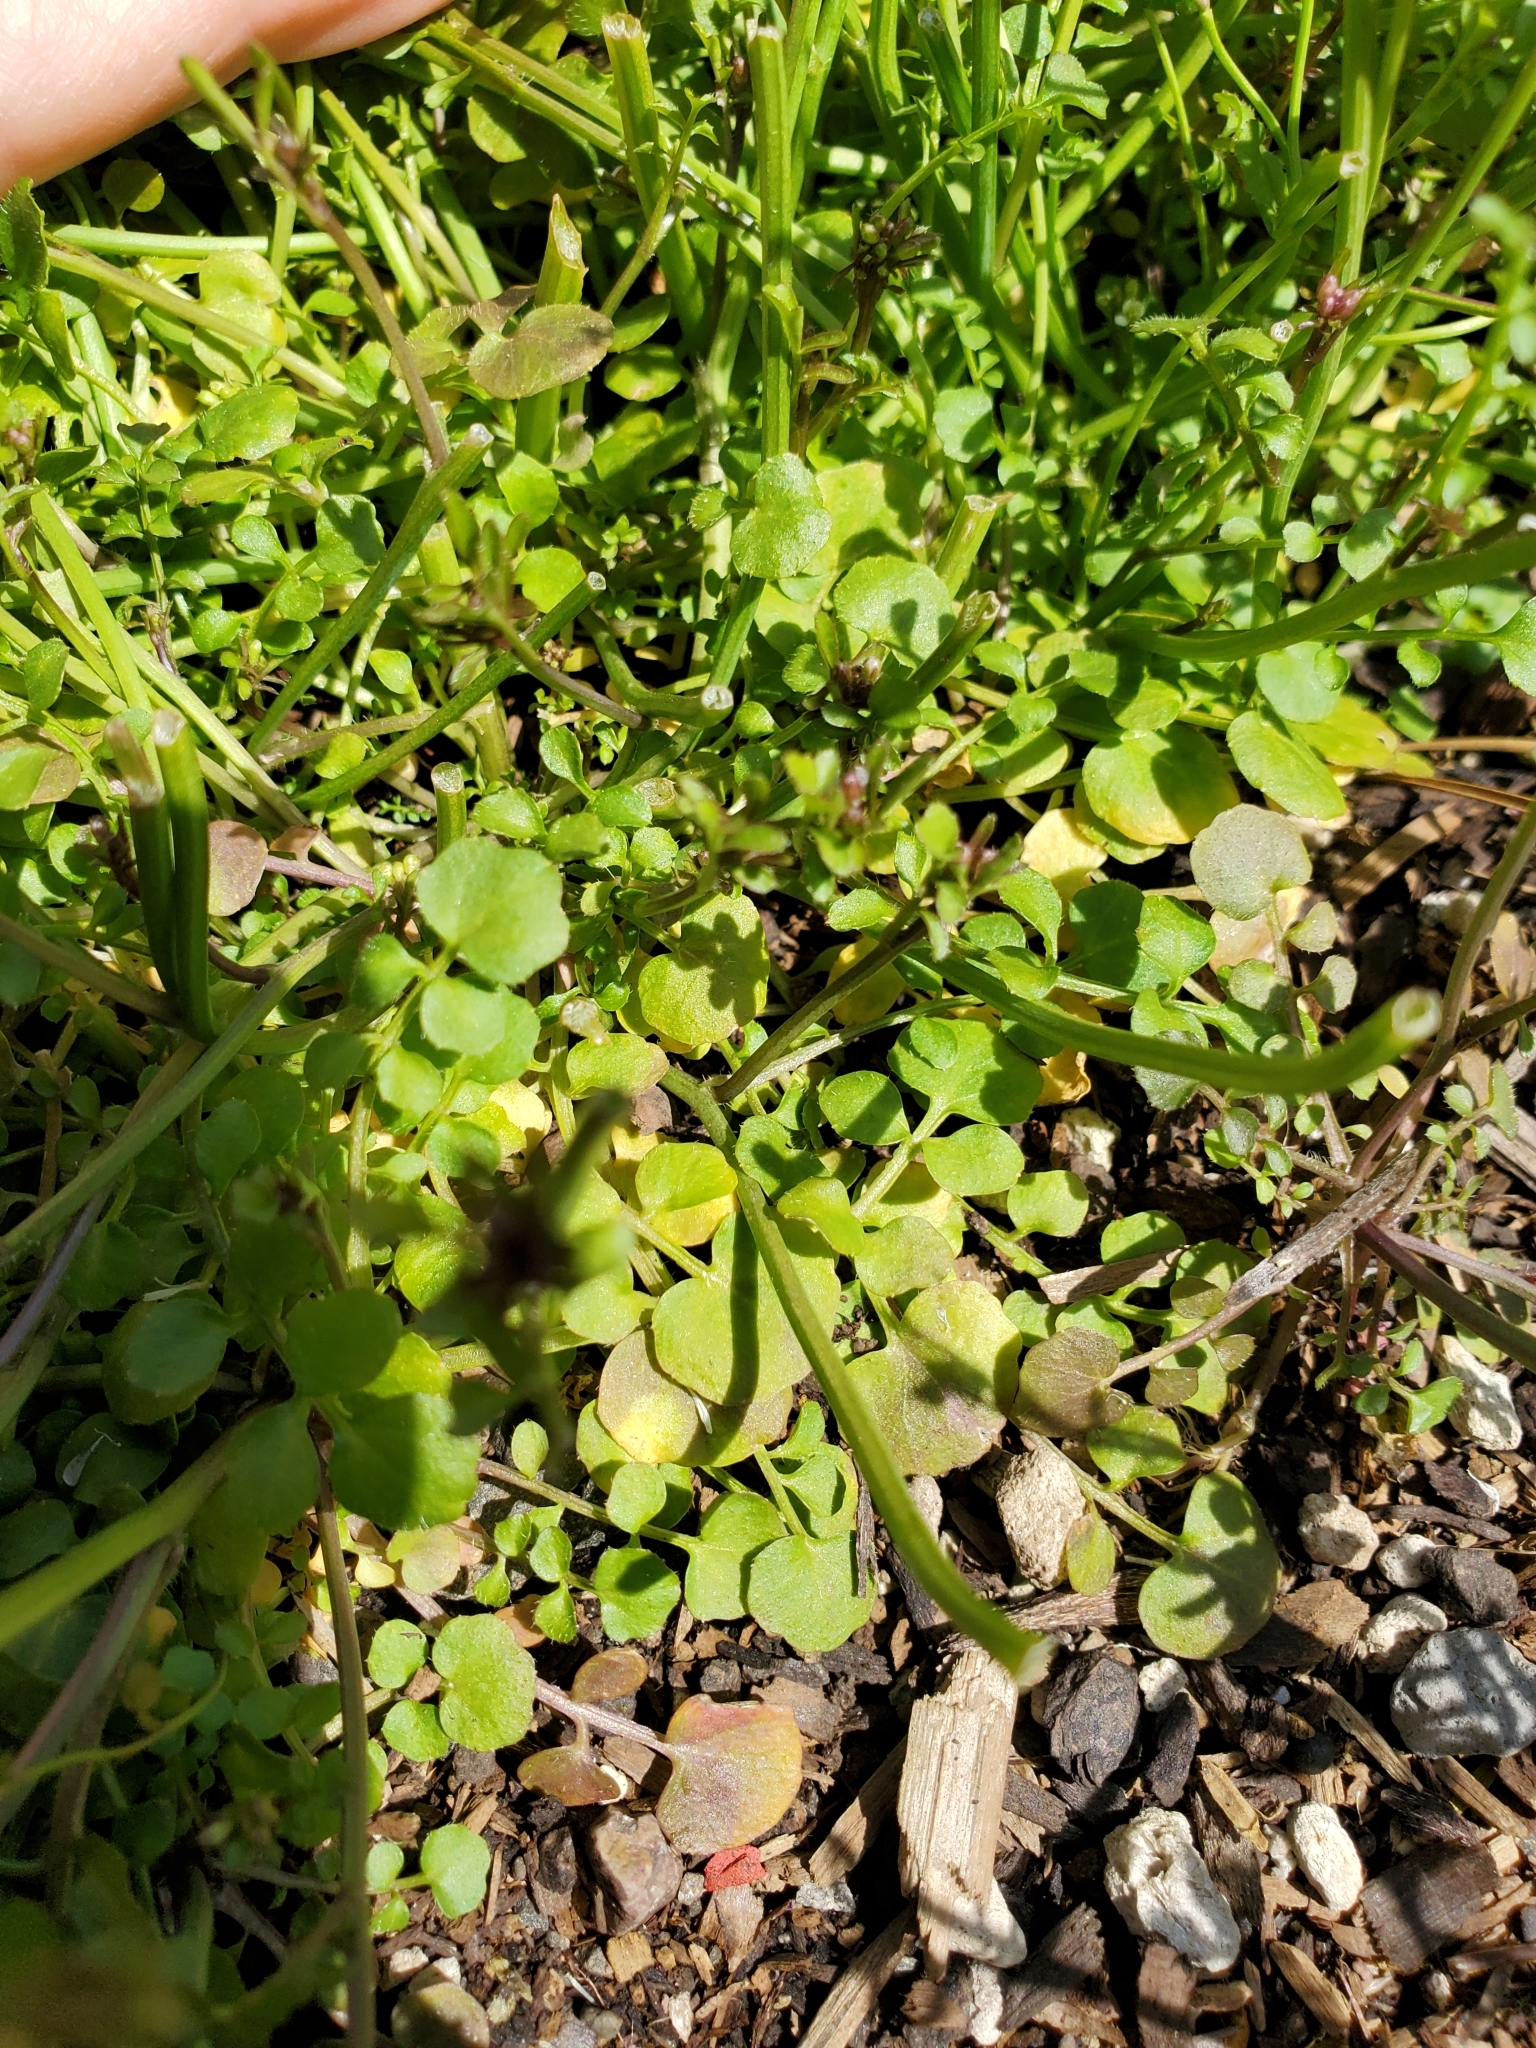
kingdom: Plantae
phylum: Tracheophyta
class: Magnoliopsida
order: Brassicales
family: Brassicaceae
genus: Cardamine
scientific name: Cardamine hirsuta
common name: Hairy bittercress
